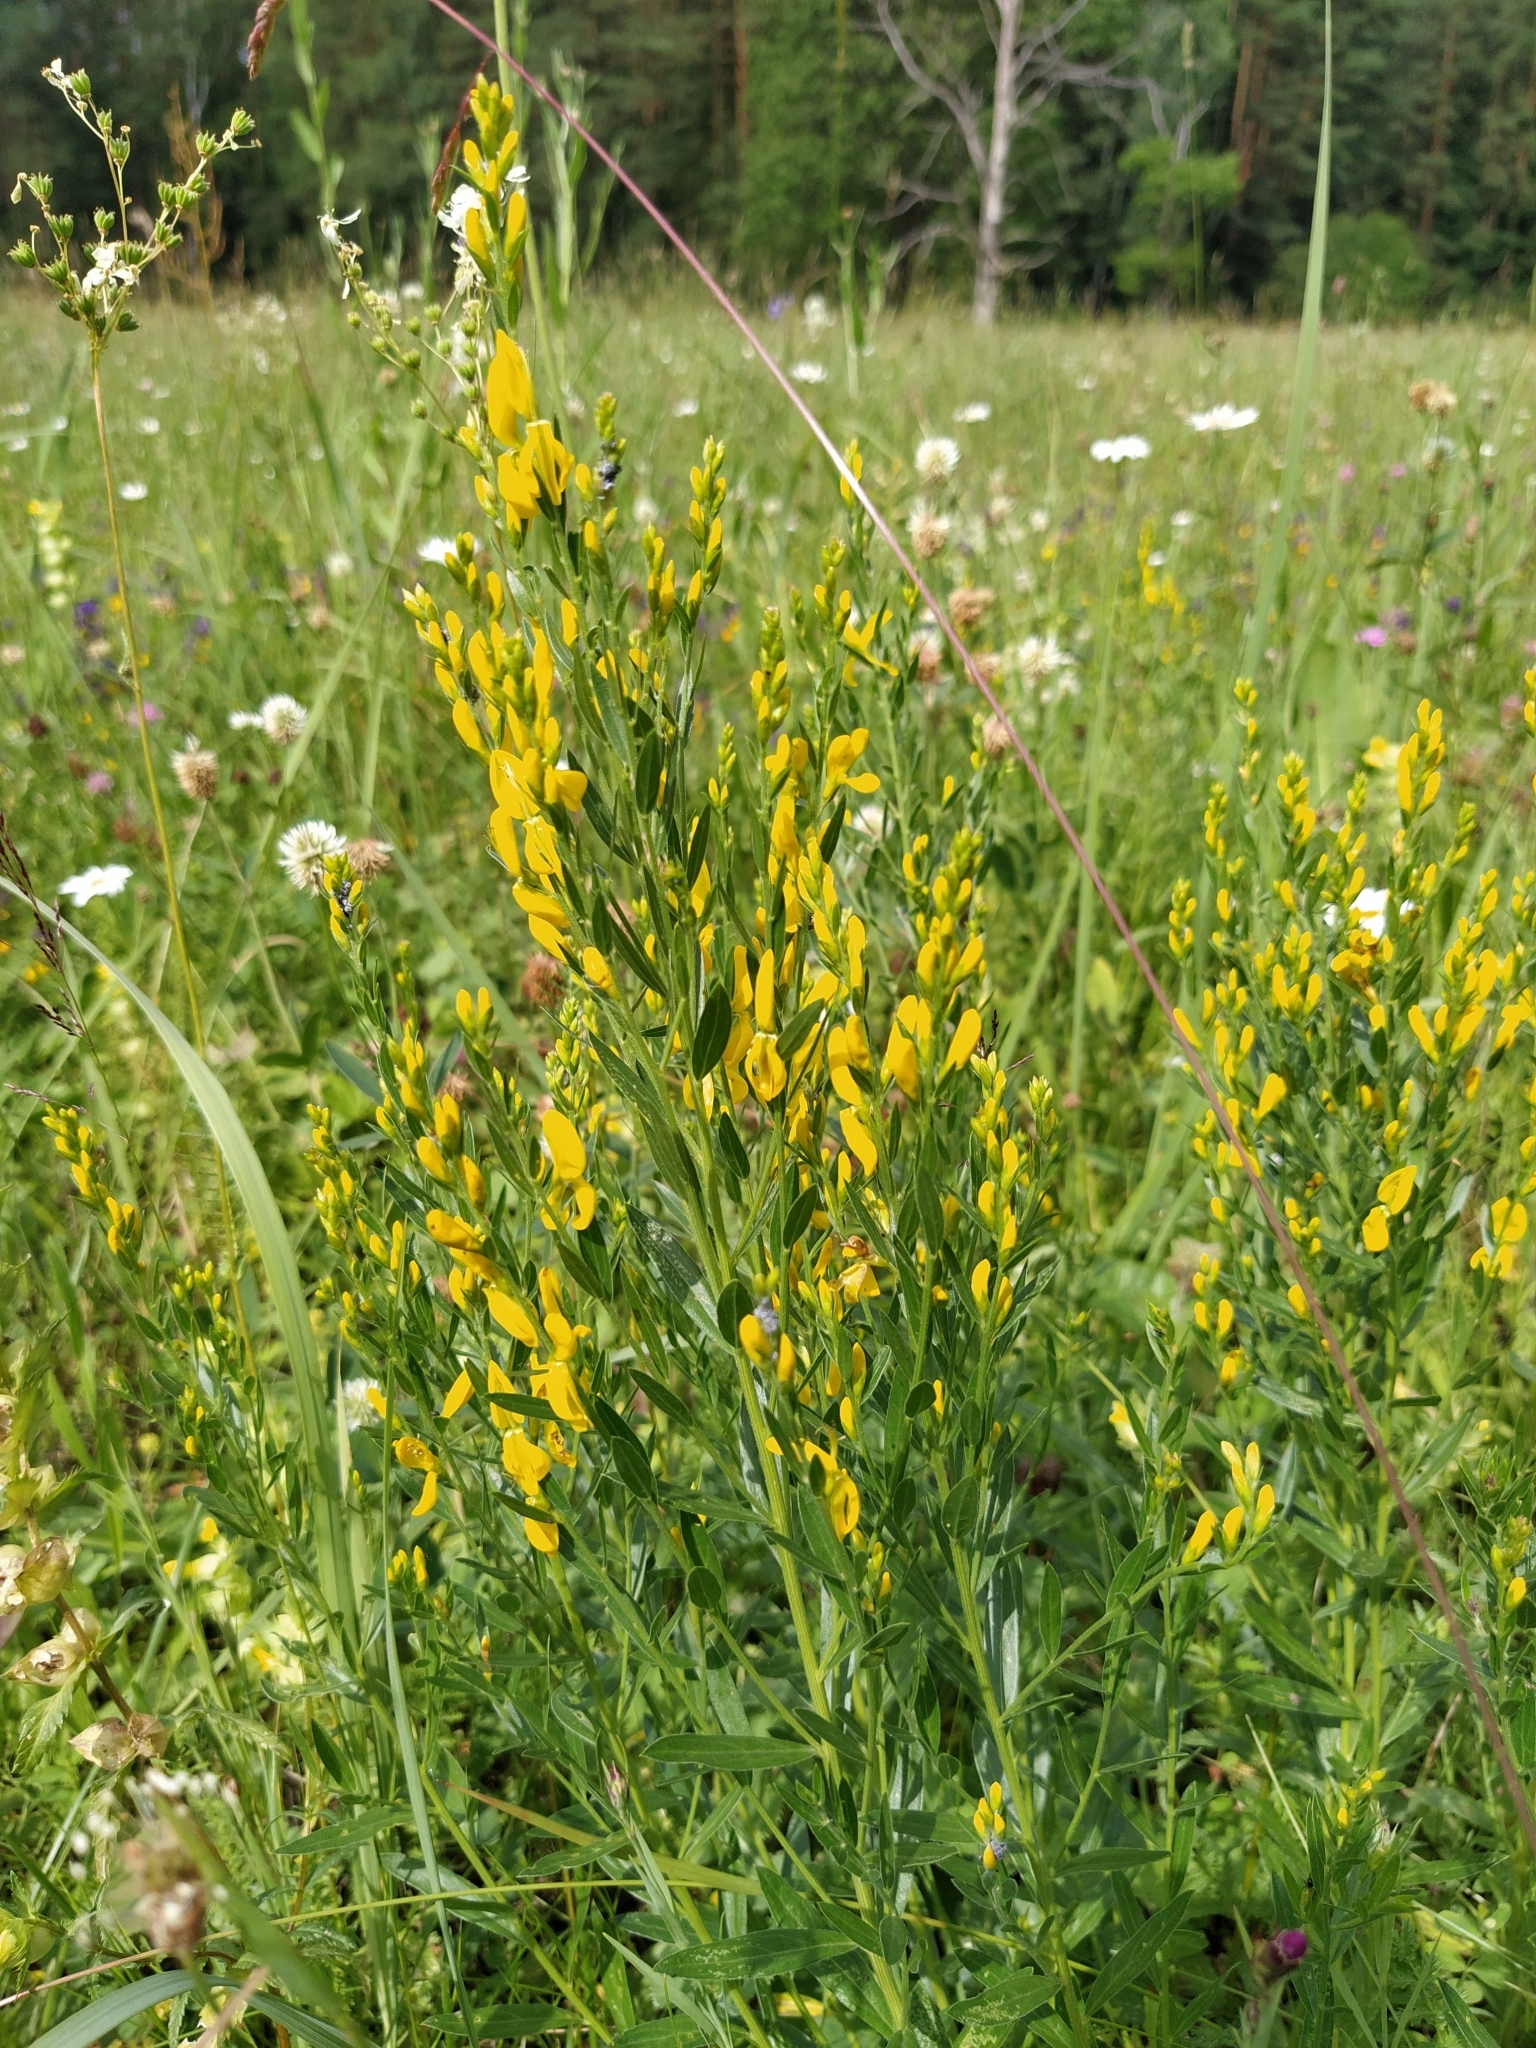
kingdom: Plantae
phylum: Tracheophyta
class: Magnoliopsida
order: Fabales
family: Fabaceae
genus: Genista
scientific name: Genista tinctoria
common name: Dyer's greenweed
